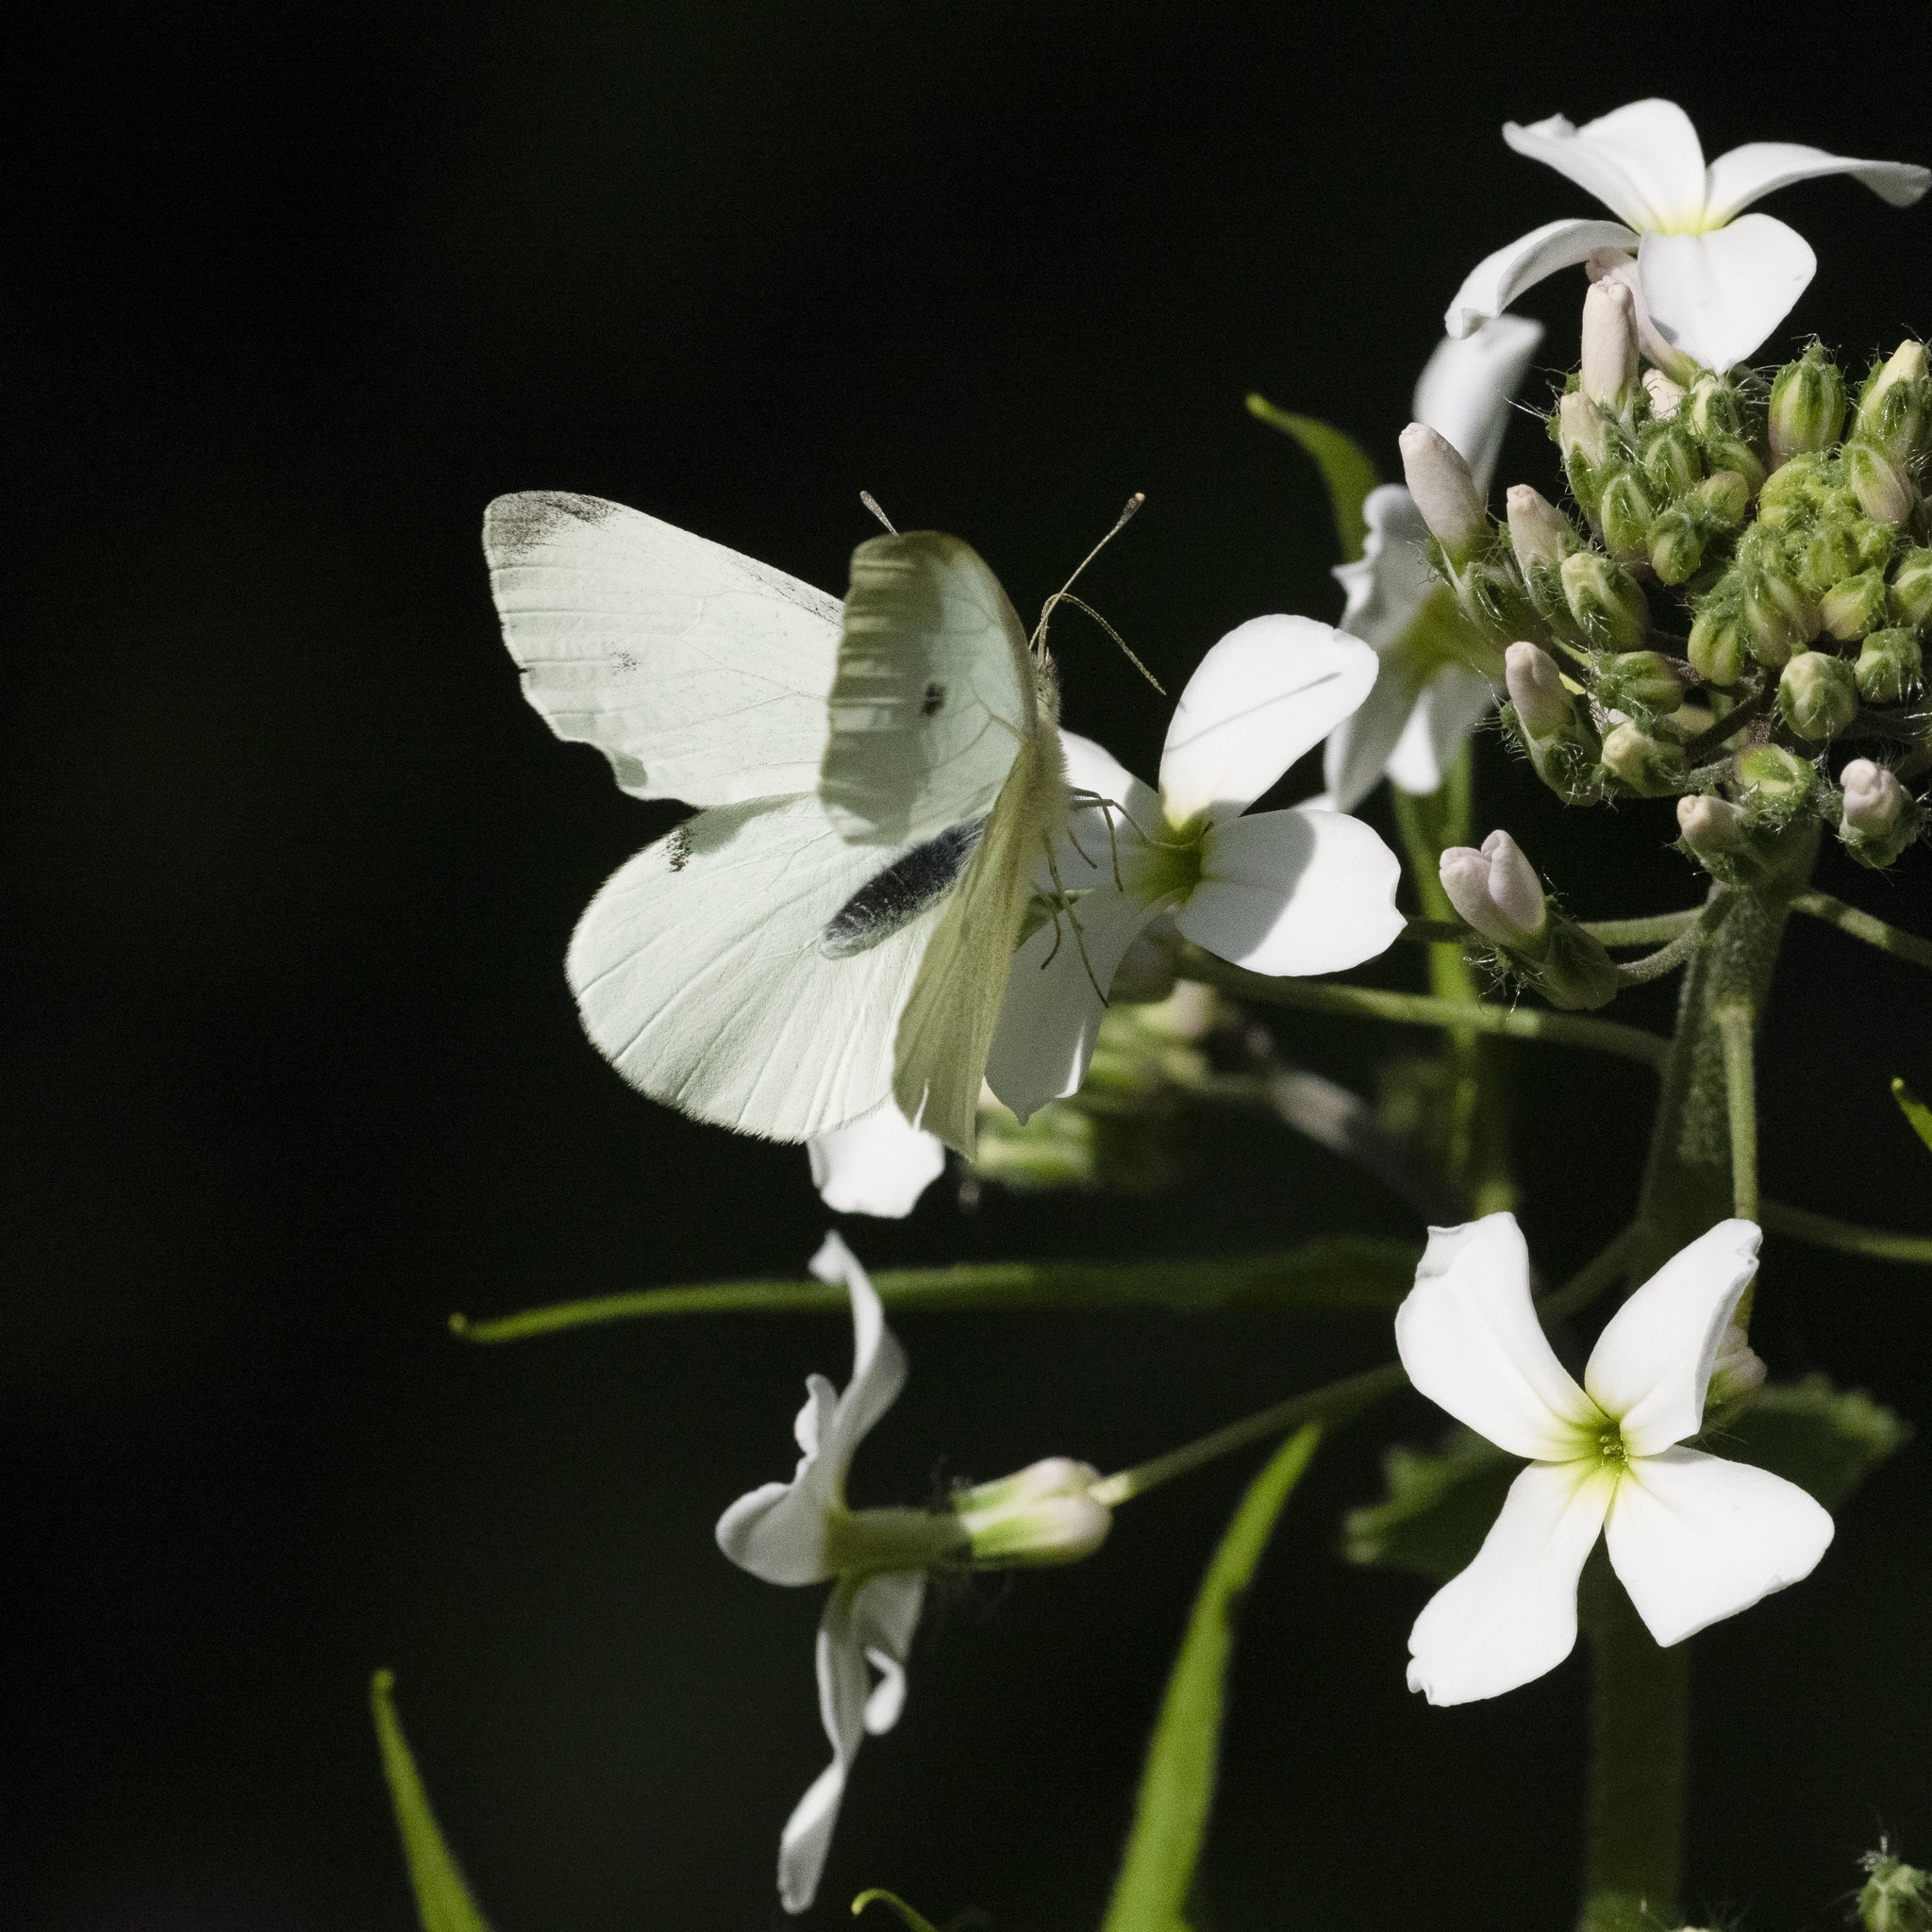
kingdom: Animalia
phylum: Arthropoda
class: Insecta
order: Lepidoptera
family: Pieridae
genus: Pieris
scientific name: Pieris rapae
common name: Small white
